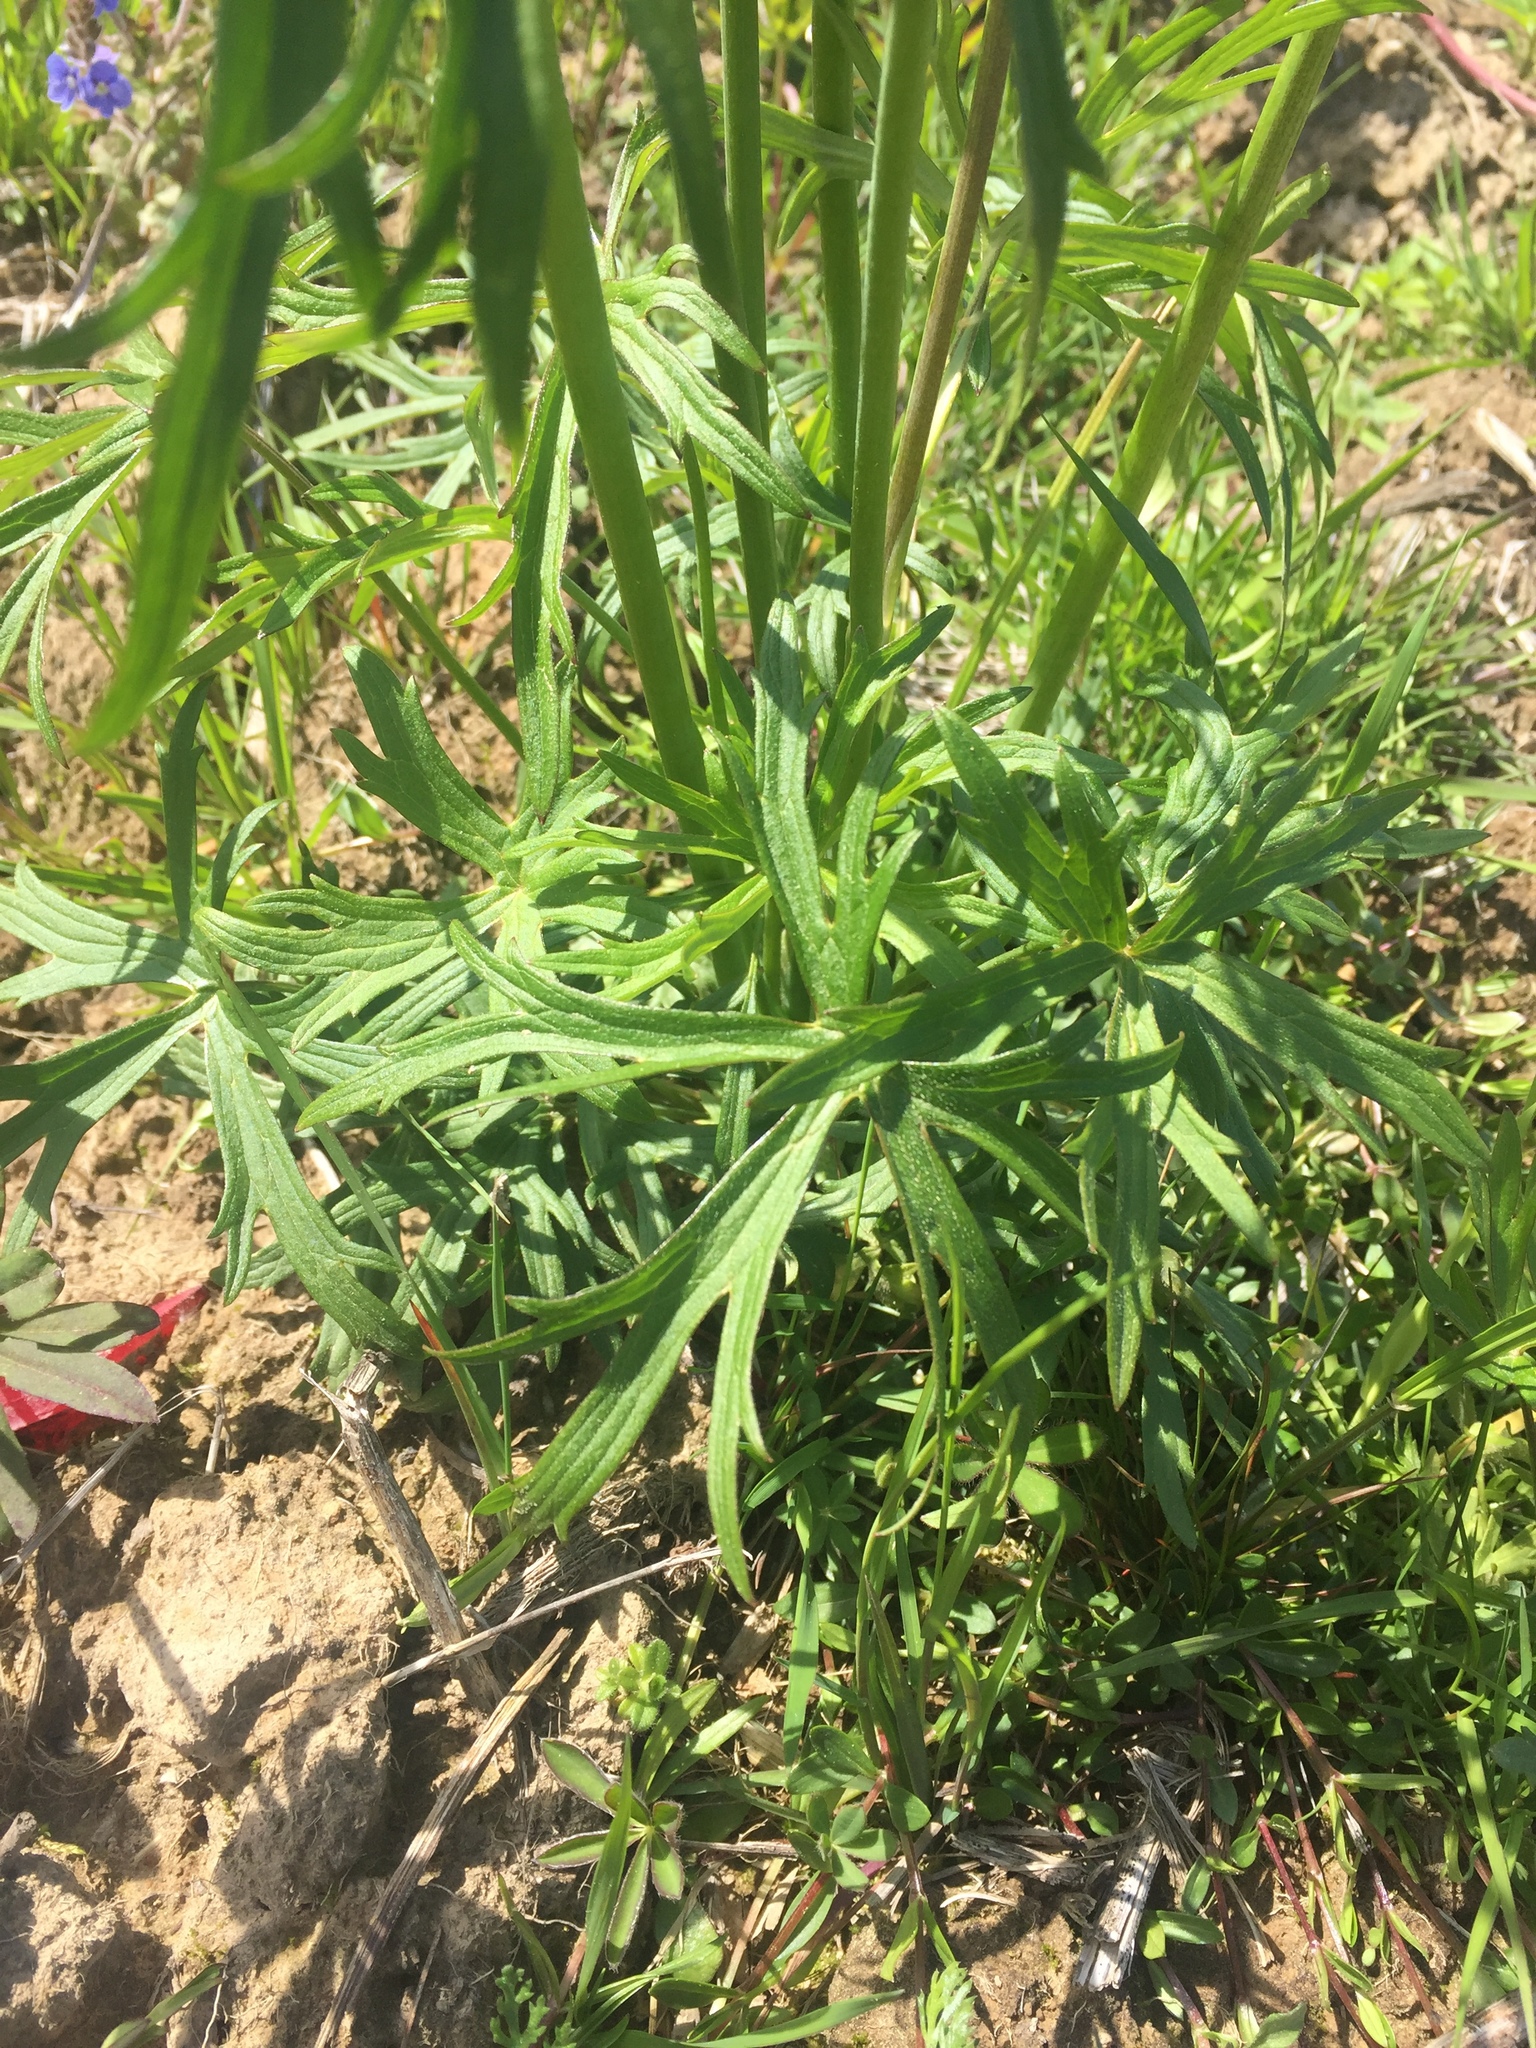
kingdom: Plantae
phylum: Tracheophyta
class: Magnoliopsida
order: Ranunculales
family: Ranunculaceae
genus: Ranunculus
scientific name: Ranunculus acris
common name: Meadow buttercup
